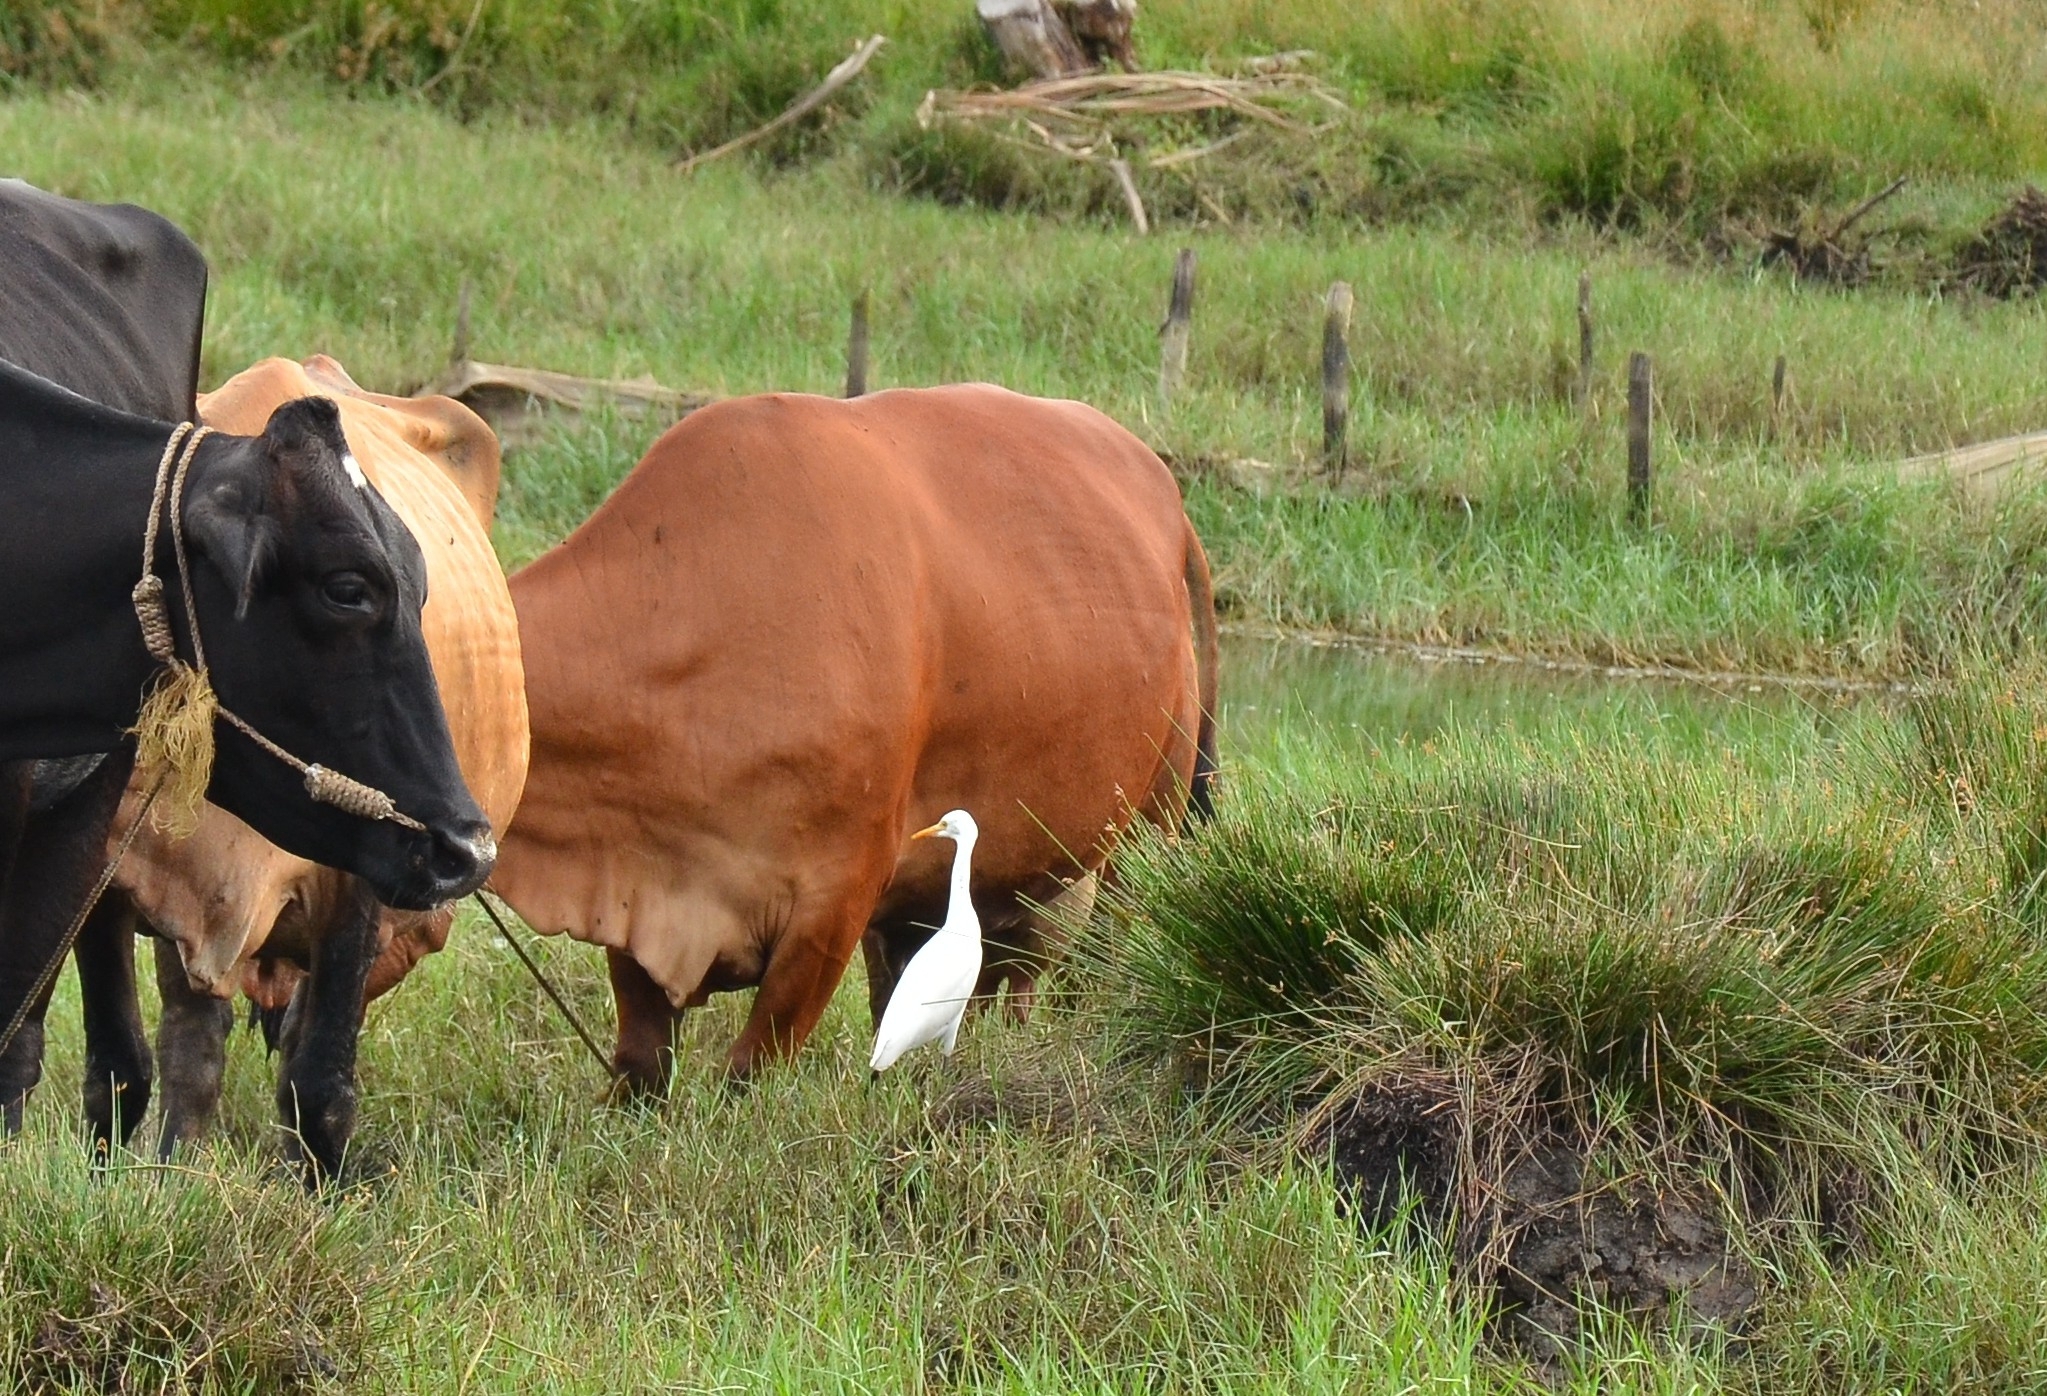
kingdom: Animalia
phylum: Chordata
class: Aves
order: Pelecaniformes
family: Ardeidae
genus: Bubulcus
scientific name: Bubulcus coromandus
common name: Eastern cattle egret
